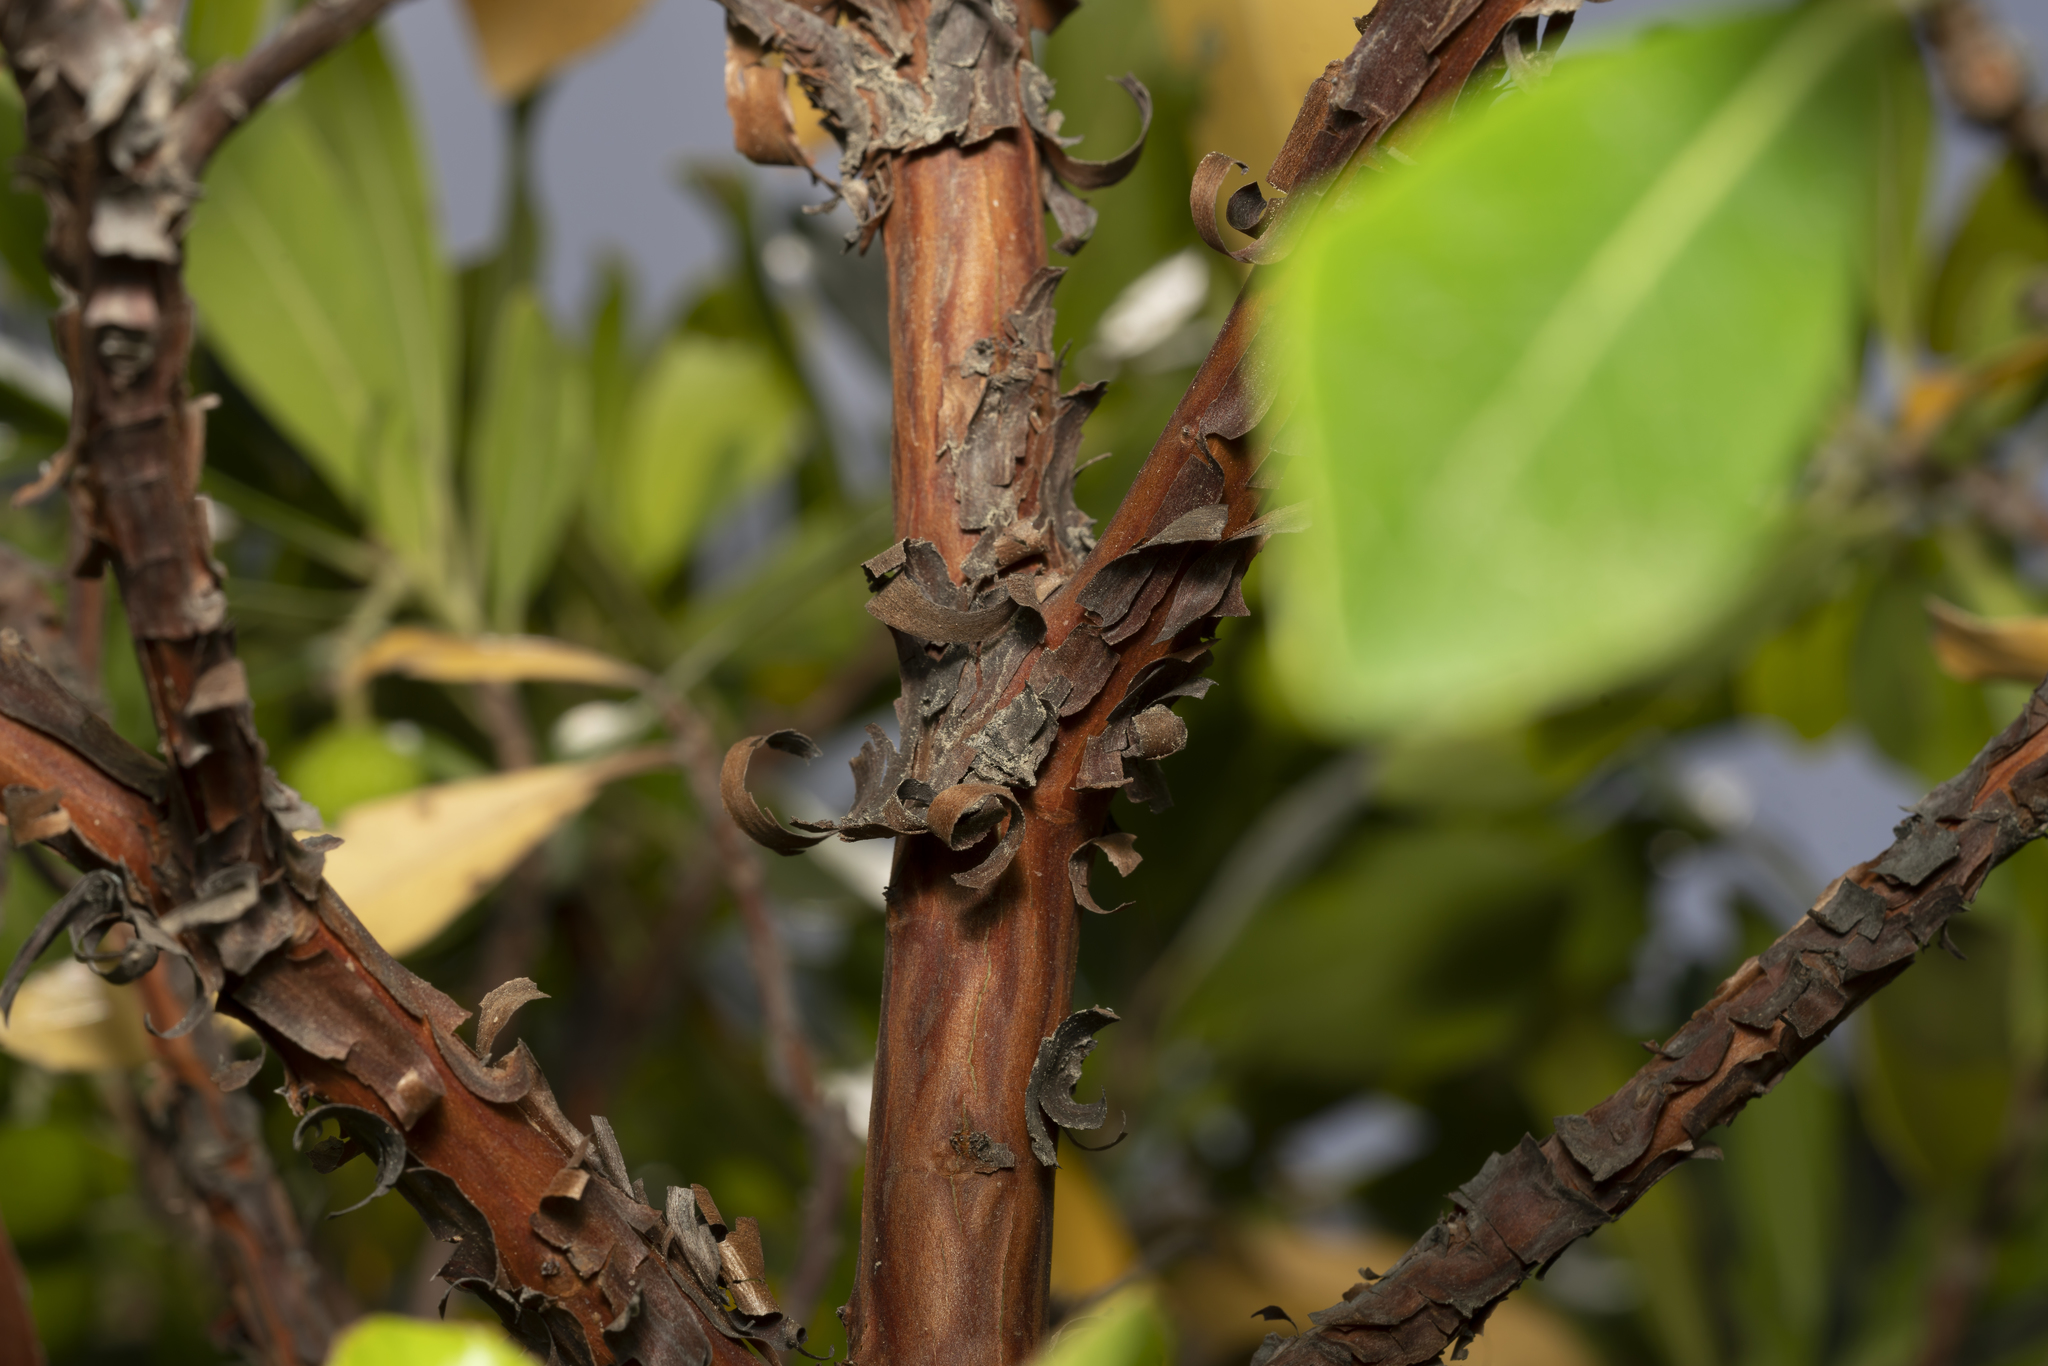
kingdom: Plantae
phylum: Tracheophyta
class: Magnoliopsida
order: Ericales
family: Ericaceae
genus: Arbutus
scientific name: Arbutus andrachne
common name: Greek strawberry tree
